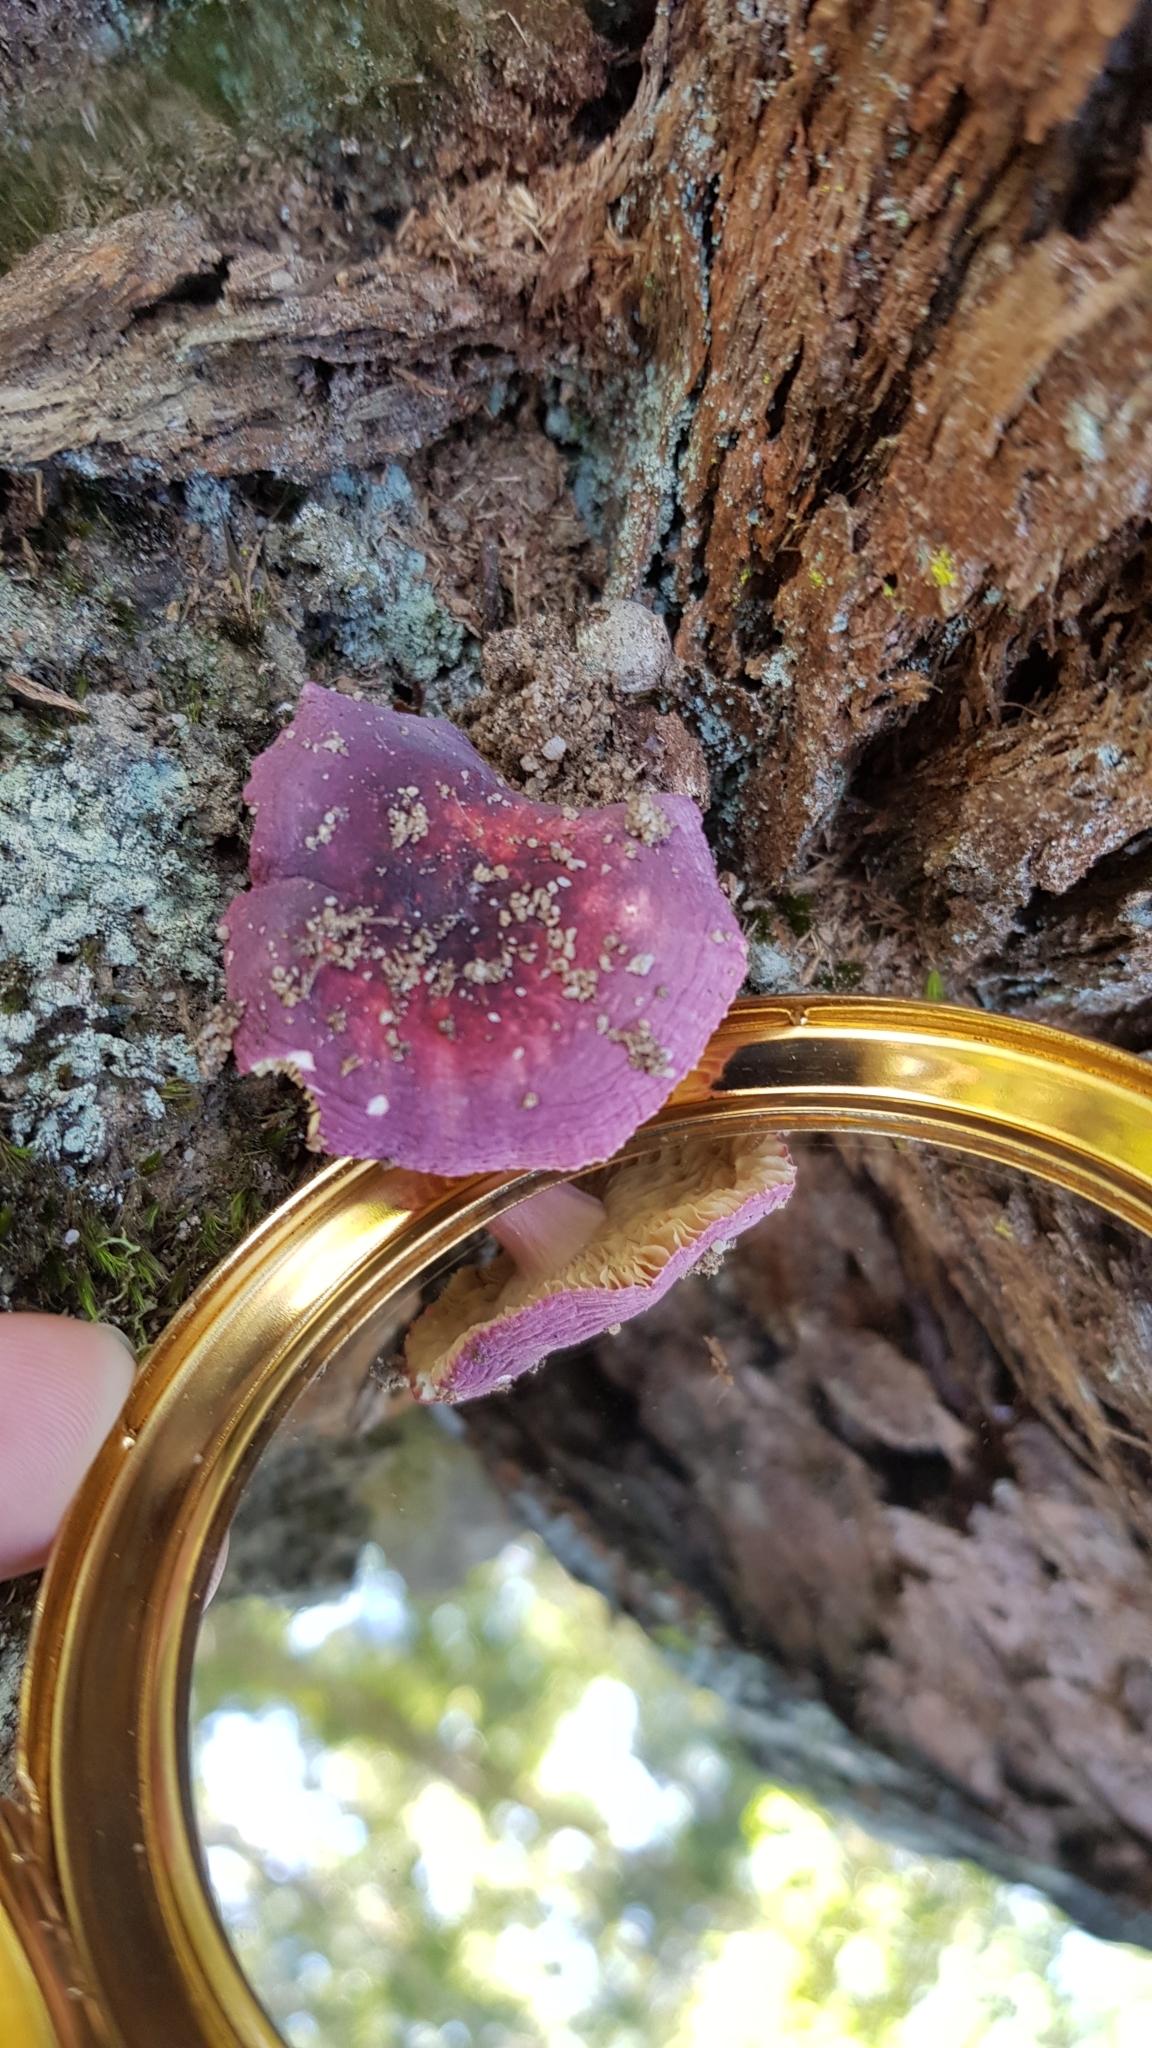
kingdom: Fungi
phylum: Basidiomycota
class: Agaricomycetes
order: Russulales
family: Russulaceae
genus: Russula
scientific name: Russula lenkunya
